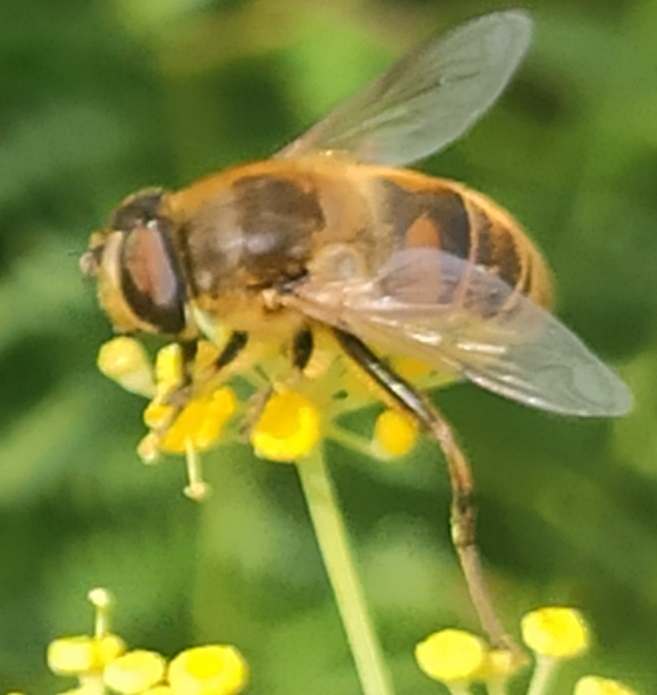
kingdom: Animalia
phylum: Arthropoda
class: Insecta
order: Diptera
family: Syrphidae
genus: Eristalis
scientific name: Eristalis tenax
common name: Drone fly
